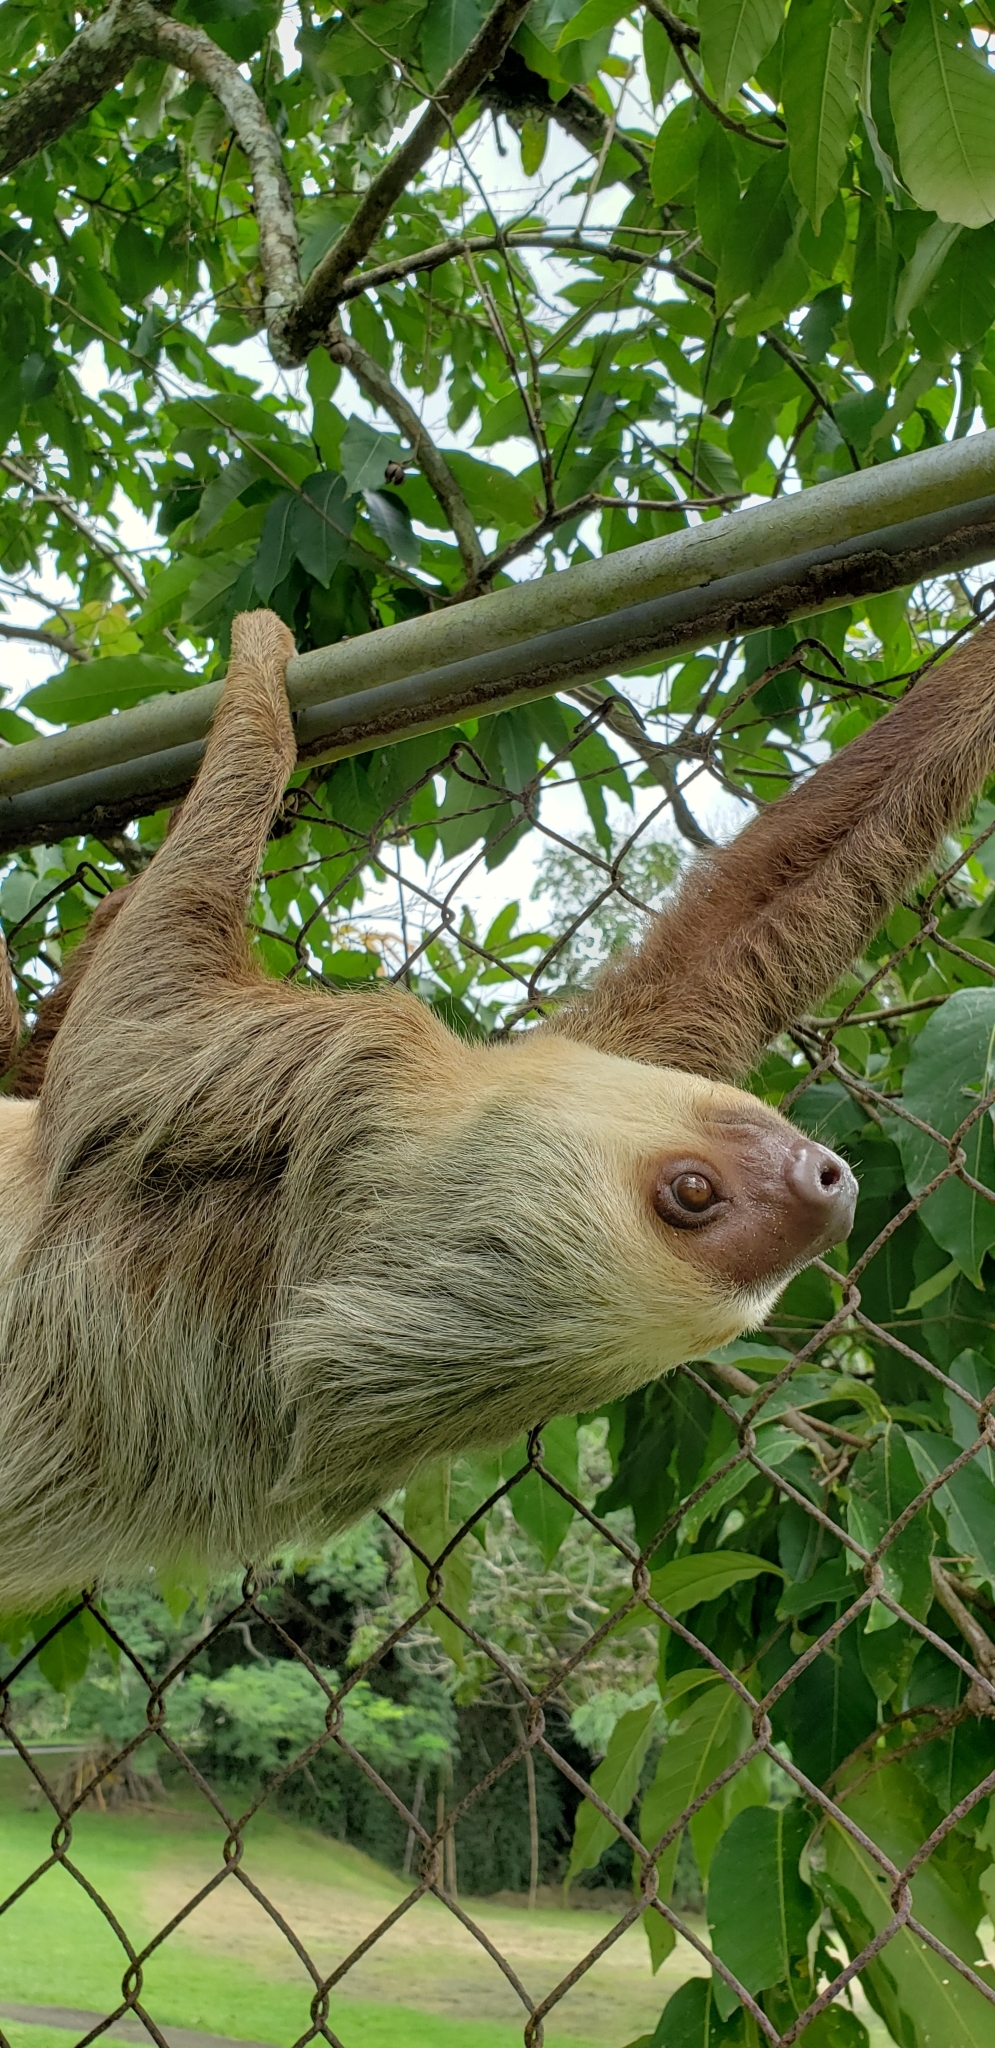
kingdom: Animalia
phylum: Chordata
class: Mammalia
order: Pilosa
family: Megalonychidae
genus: Choloepus
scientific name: Choloepus hoffmanni
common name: Hoffmann's two-toed sloth
